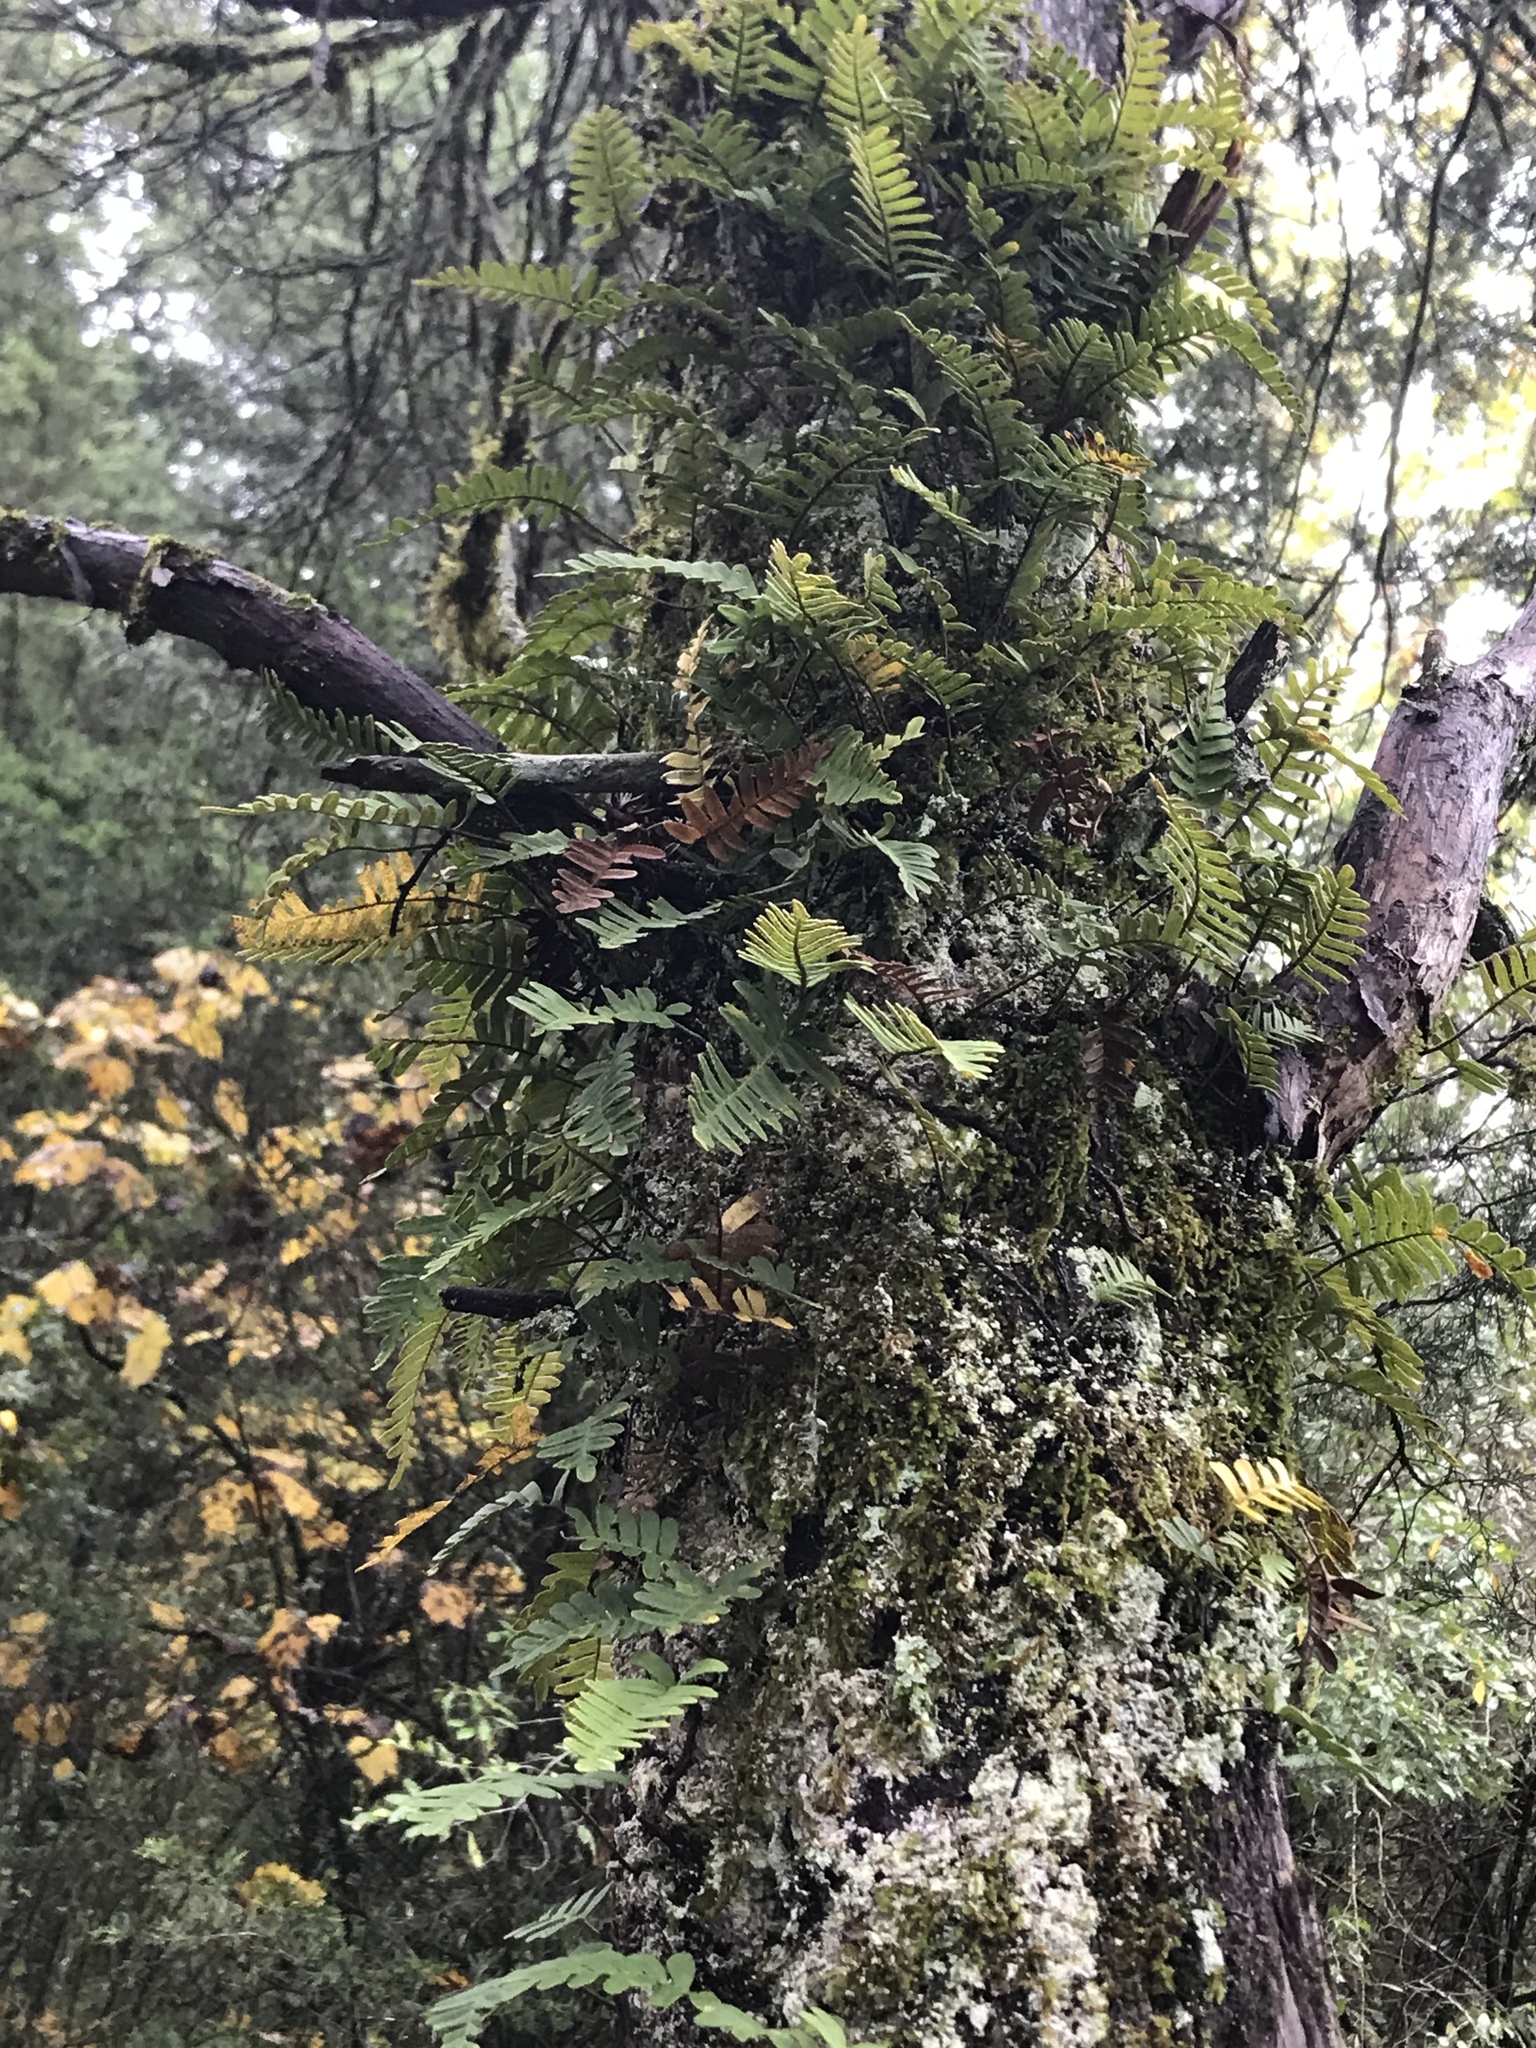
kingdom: Plantae
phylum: Tracheophyta
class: Polypodiopsida
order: Polypodiales
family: Polypodiaceae
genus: Pleopeltis
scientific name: Pleopeltis michauxiana
